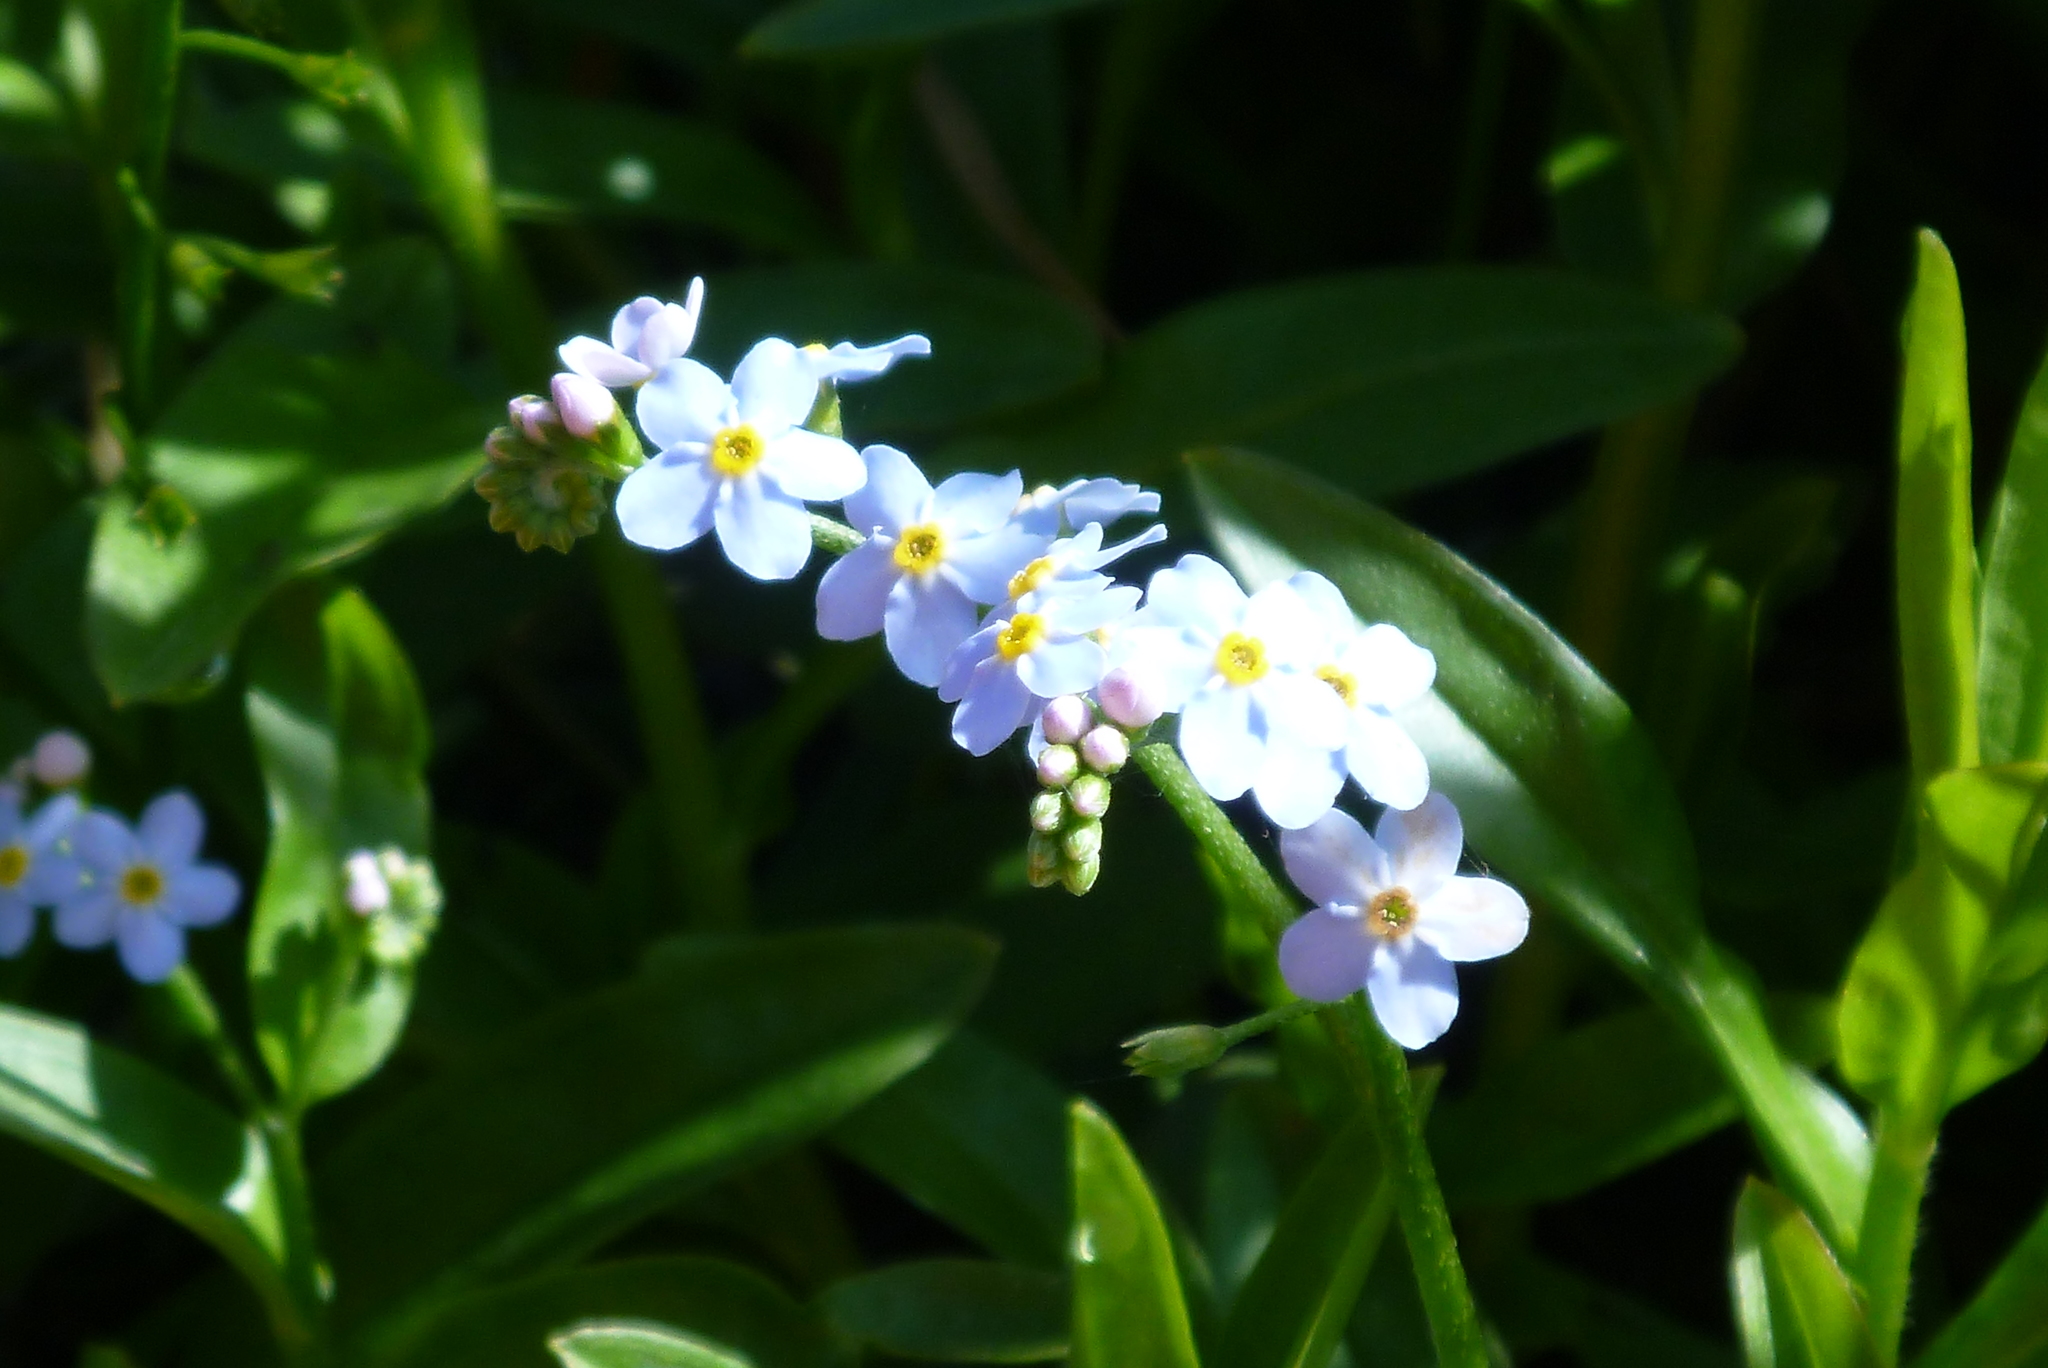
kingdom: Plantae
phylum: Tracheophyta
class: Magnoliopsida
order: Boraginales
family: Boraginaceae
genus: Myosotis
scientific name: Myosotis scorpioides
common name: Water forget-me-not
